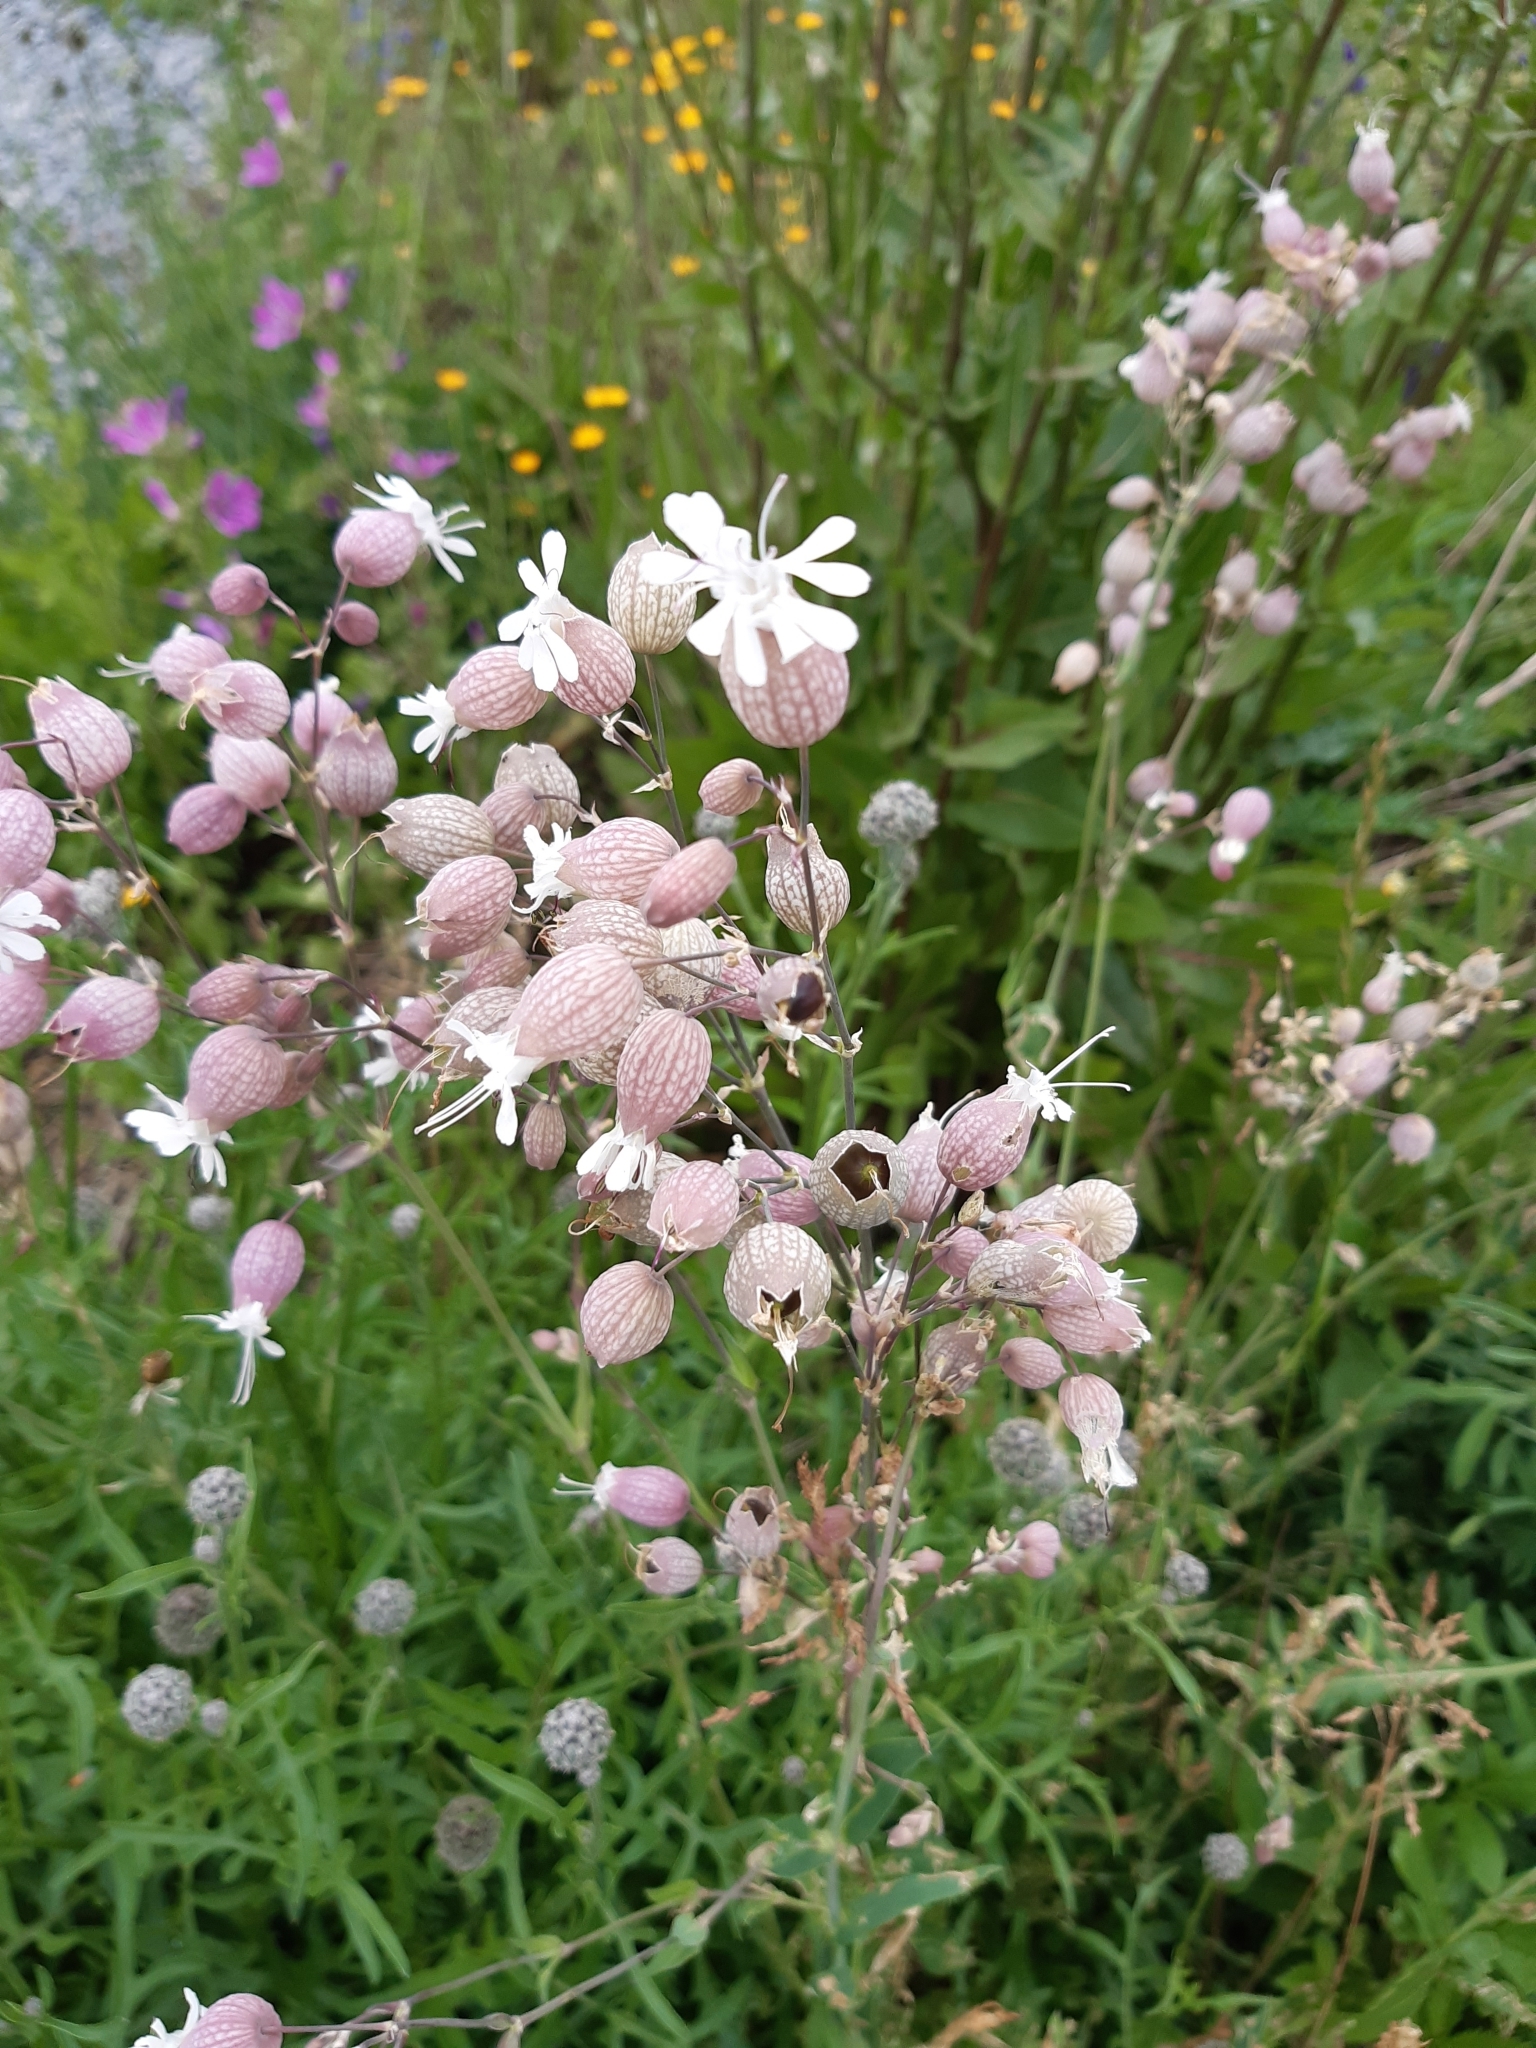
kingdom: Plantae
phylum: Tracheophyta
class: Magnoliopsida
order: Caryophyllales
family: Caryophyllaceae
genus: Silene
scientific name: Silene vulgaris
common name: Bladder campion
